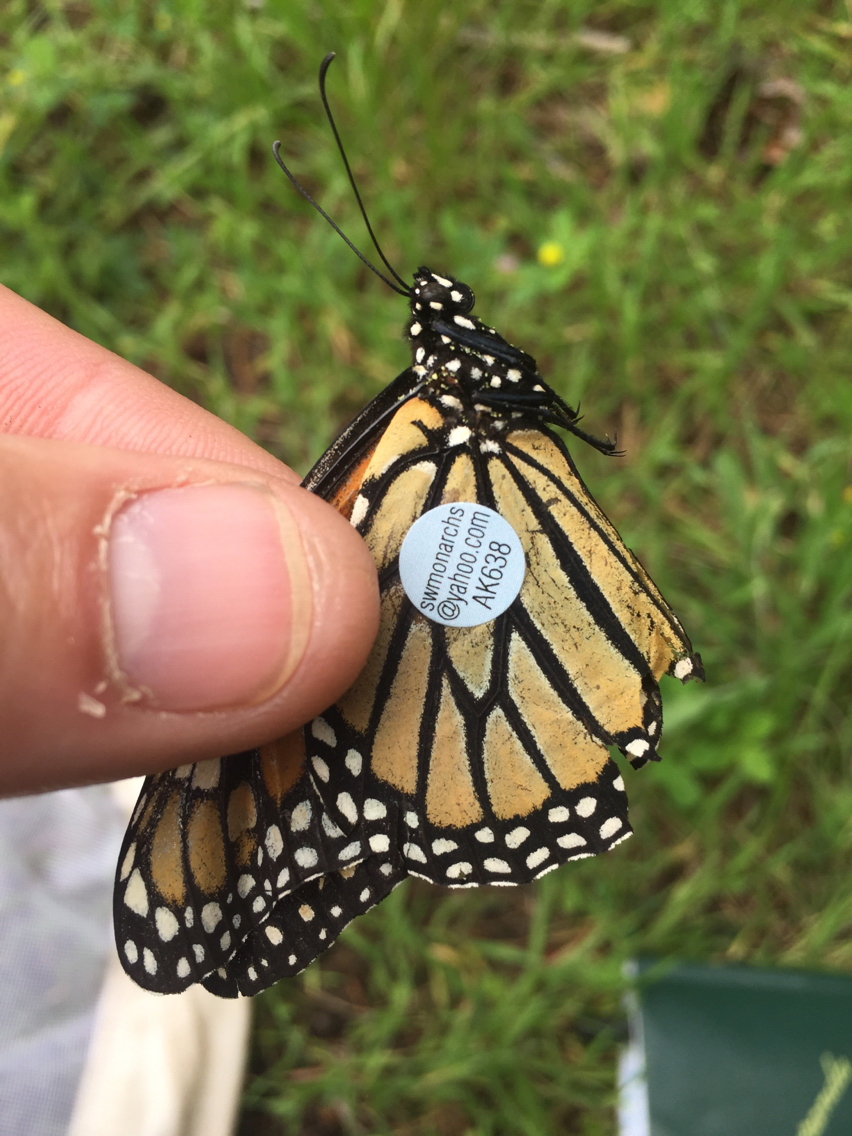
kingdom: Animalia
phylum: Arthropoda
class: Insecta
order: Lepidoptera
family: Nymphalidae
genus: Danaus
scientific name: Danaus plexippus
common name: Monarch
